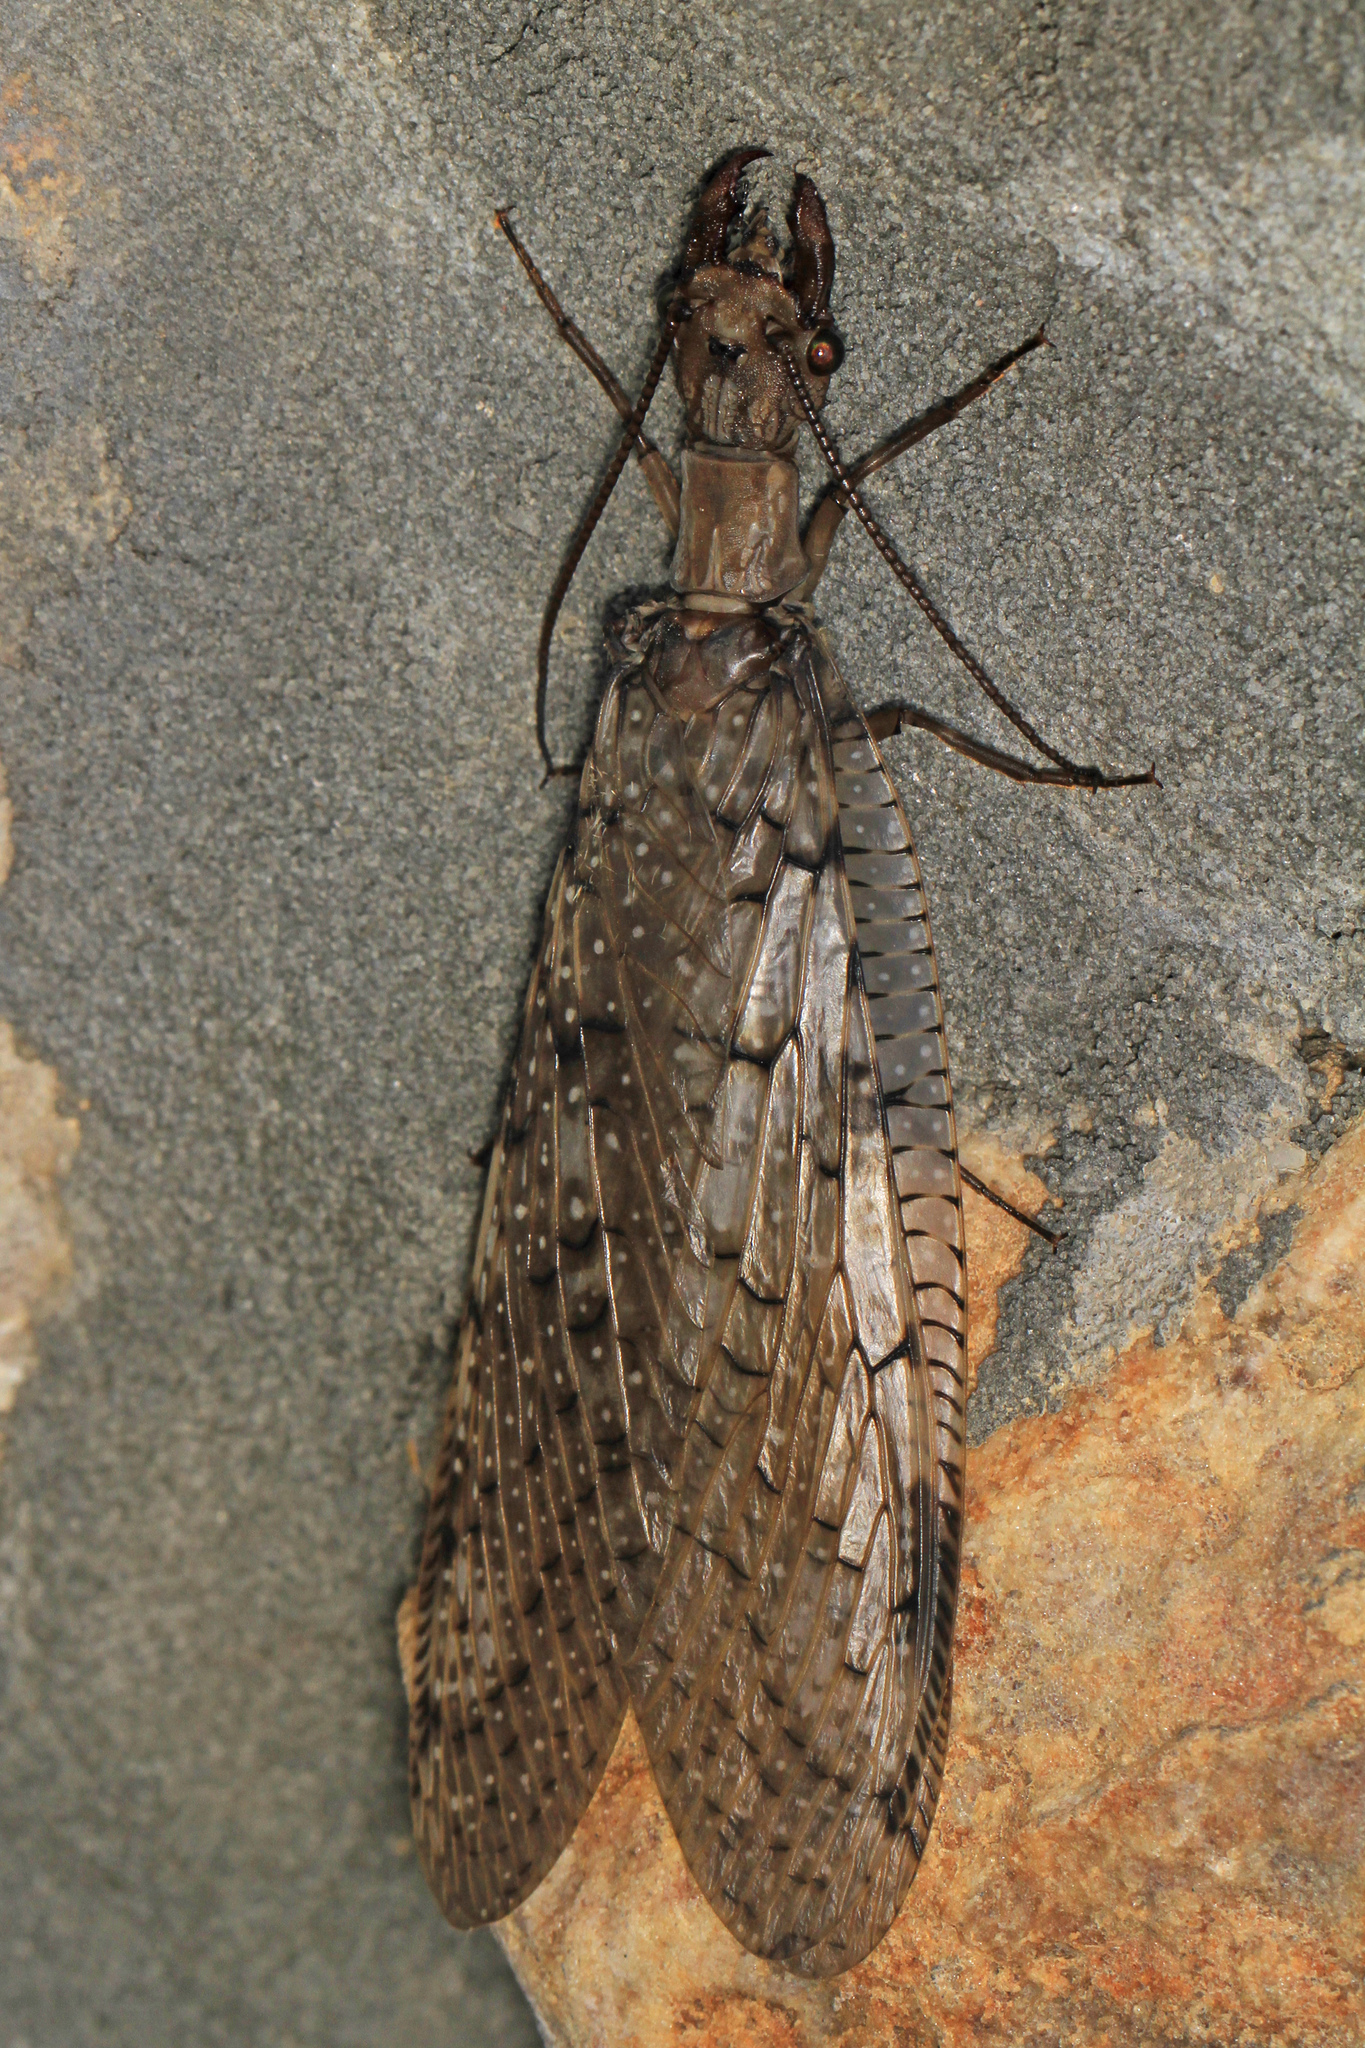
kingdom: Animalia
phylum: Arthropoda
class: Insecta
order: Megaloptera
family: Corydalidae
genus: Corydalus
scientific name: Corydalus cornutus
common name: Dobsonfly
